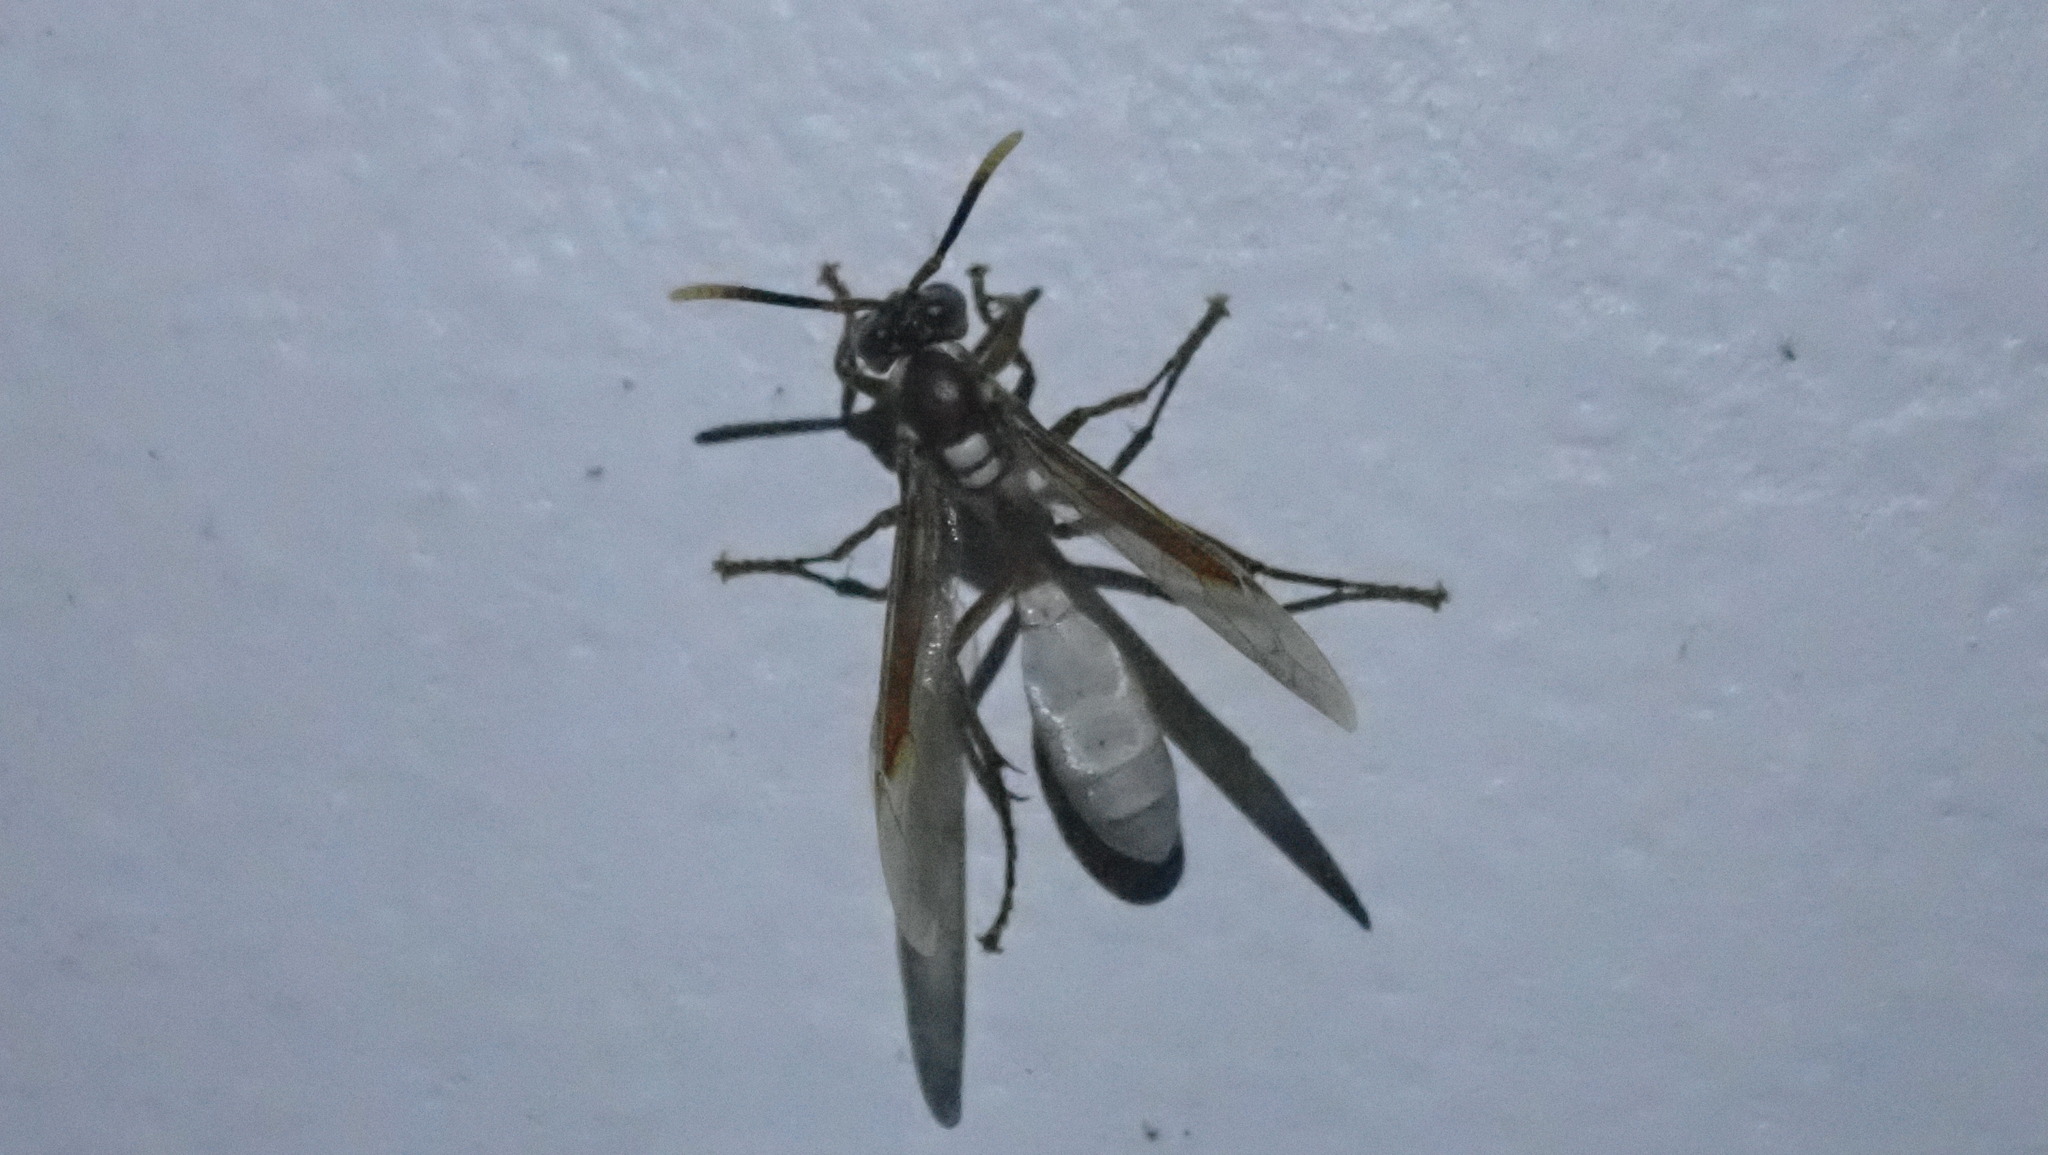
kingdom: Animalia
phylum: Arthropoda
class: Insecta
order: Hymenoptera
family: Vespidae
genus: Apoica
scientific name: Apoica gelida
